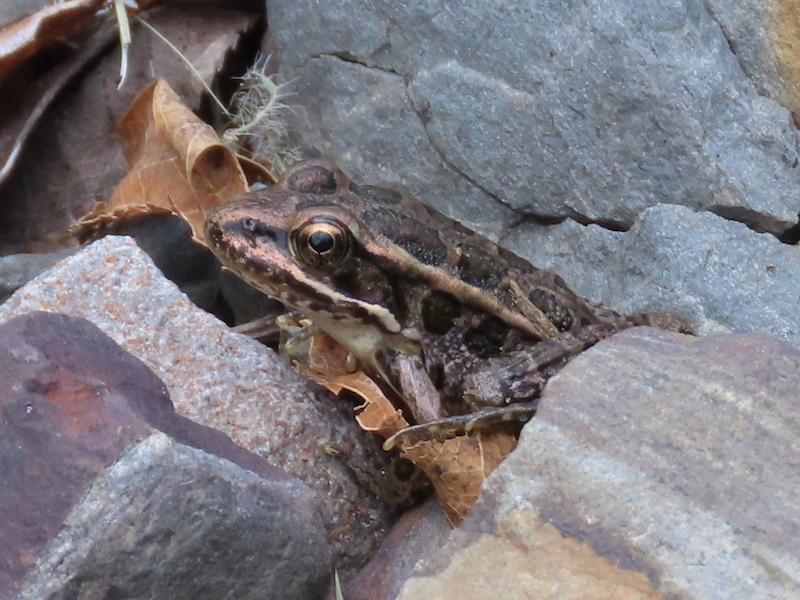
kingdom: Animalia
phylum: Chordata
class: Amphibia
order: Anura
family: Ranidae
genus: Lithobates
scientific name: Lithobates palustris
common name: Pickerel frog
